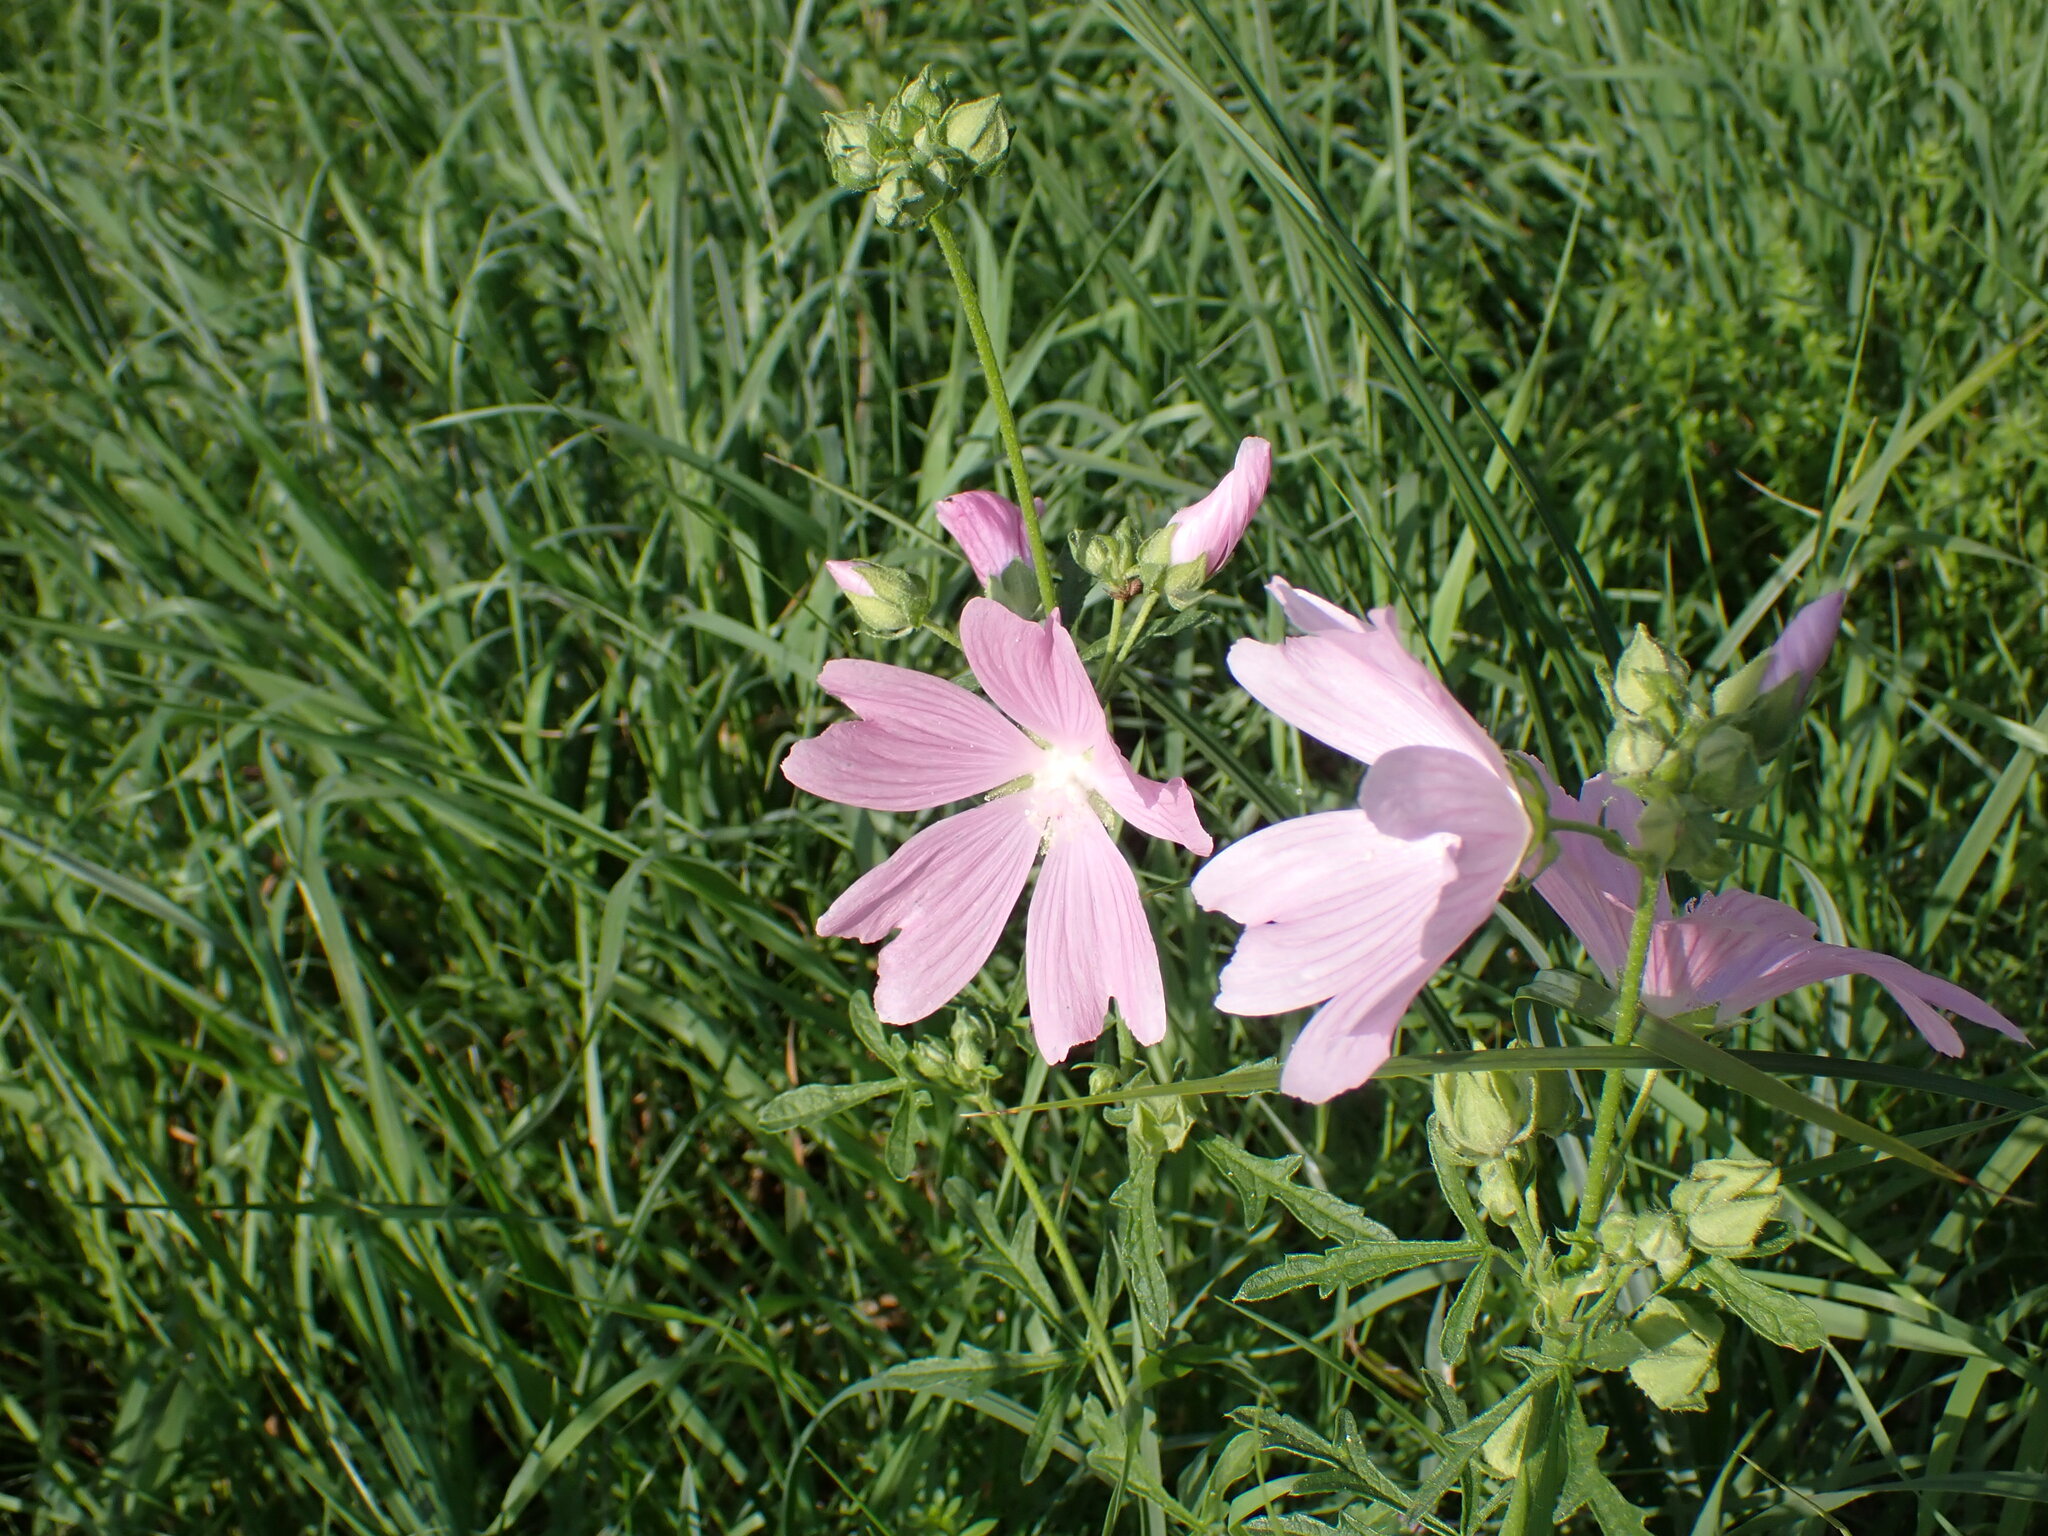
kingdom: Plantae
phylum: Tracheophyta
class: Magnoliopsida
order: Malvales
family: Malvaceae
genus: Malva
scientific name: Malva alcea
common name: Greater musk-mallow
